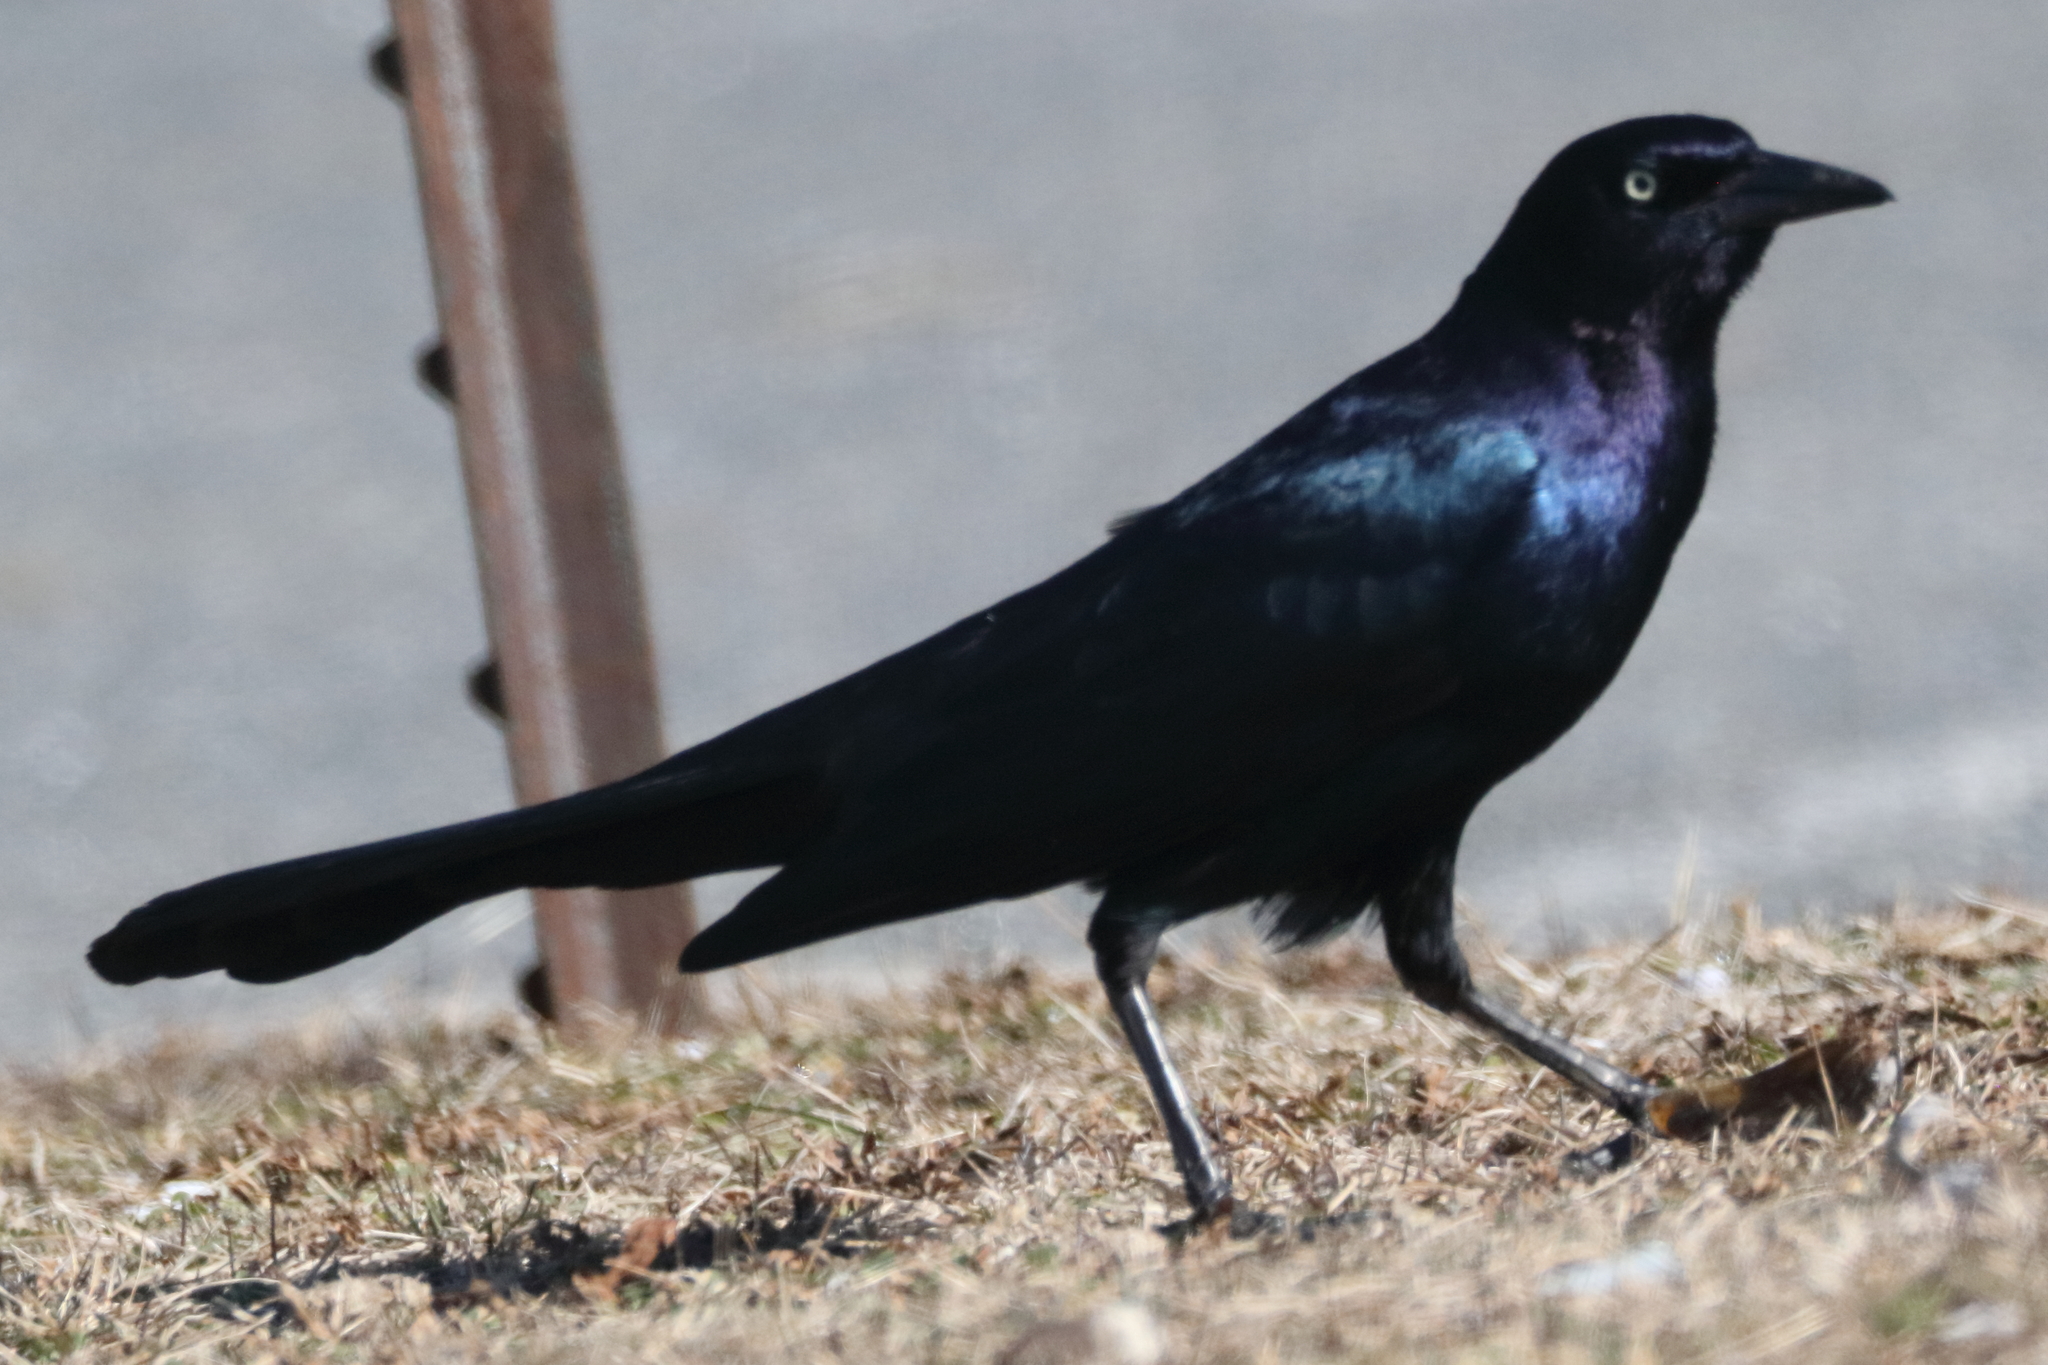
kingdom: Animalia
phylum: Chordata
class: Aves
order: Passeriformes
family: Icteridae
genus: Quiscalus
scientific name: Quiscalus major
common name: Boat-tailed grackle
